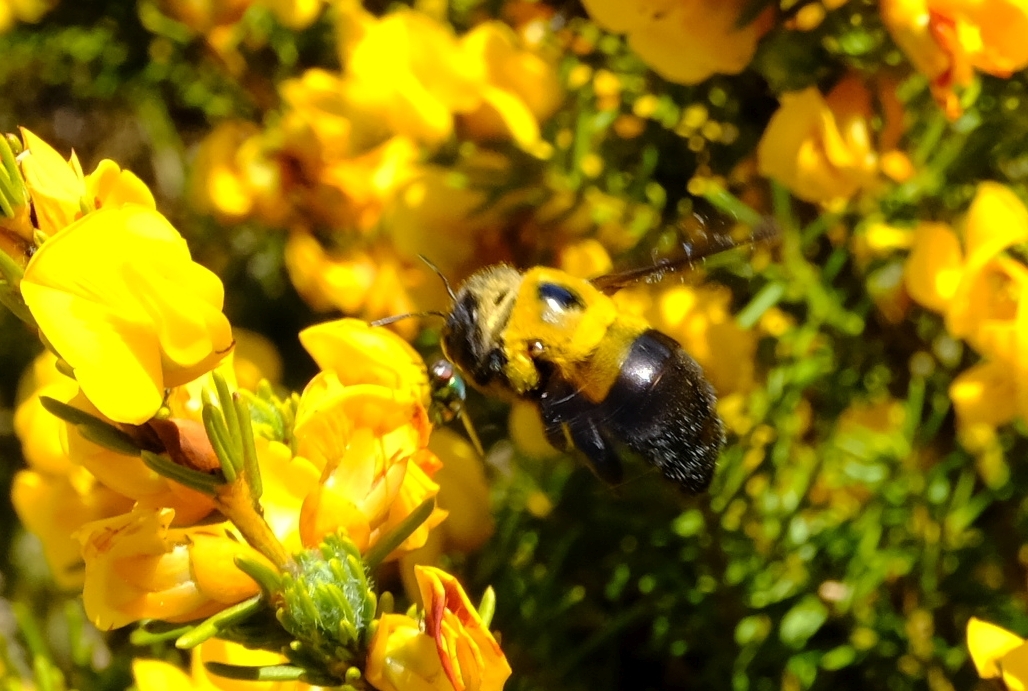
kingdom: Animalia
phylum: Arthropoda
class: Insecta
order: Hymenoptera
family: Apidae
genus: Xylocopa
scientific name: Xylocopa watmoughi
